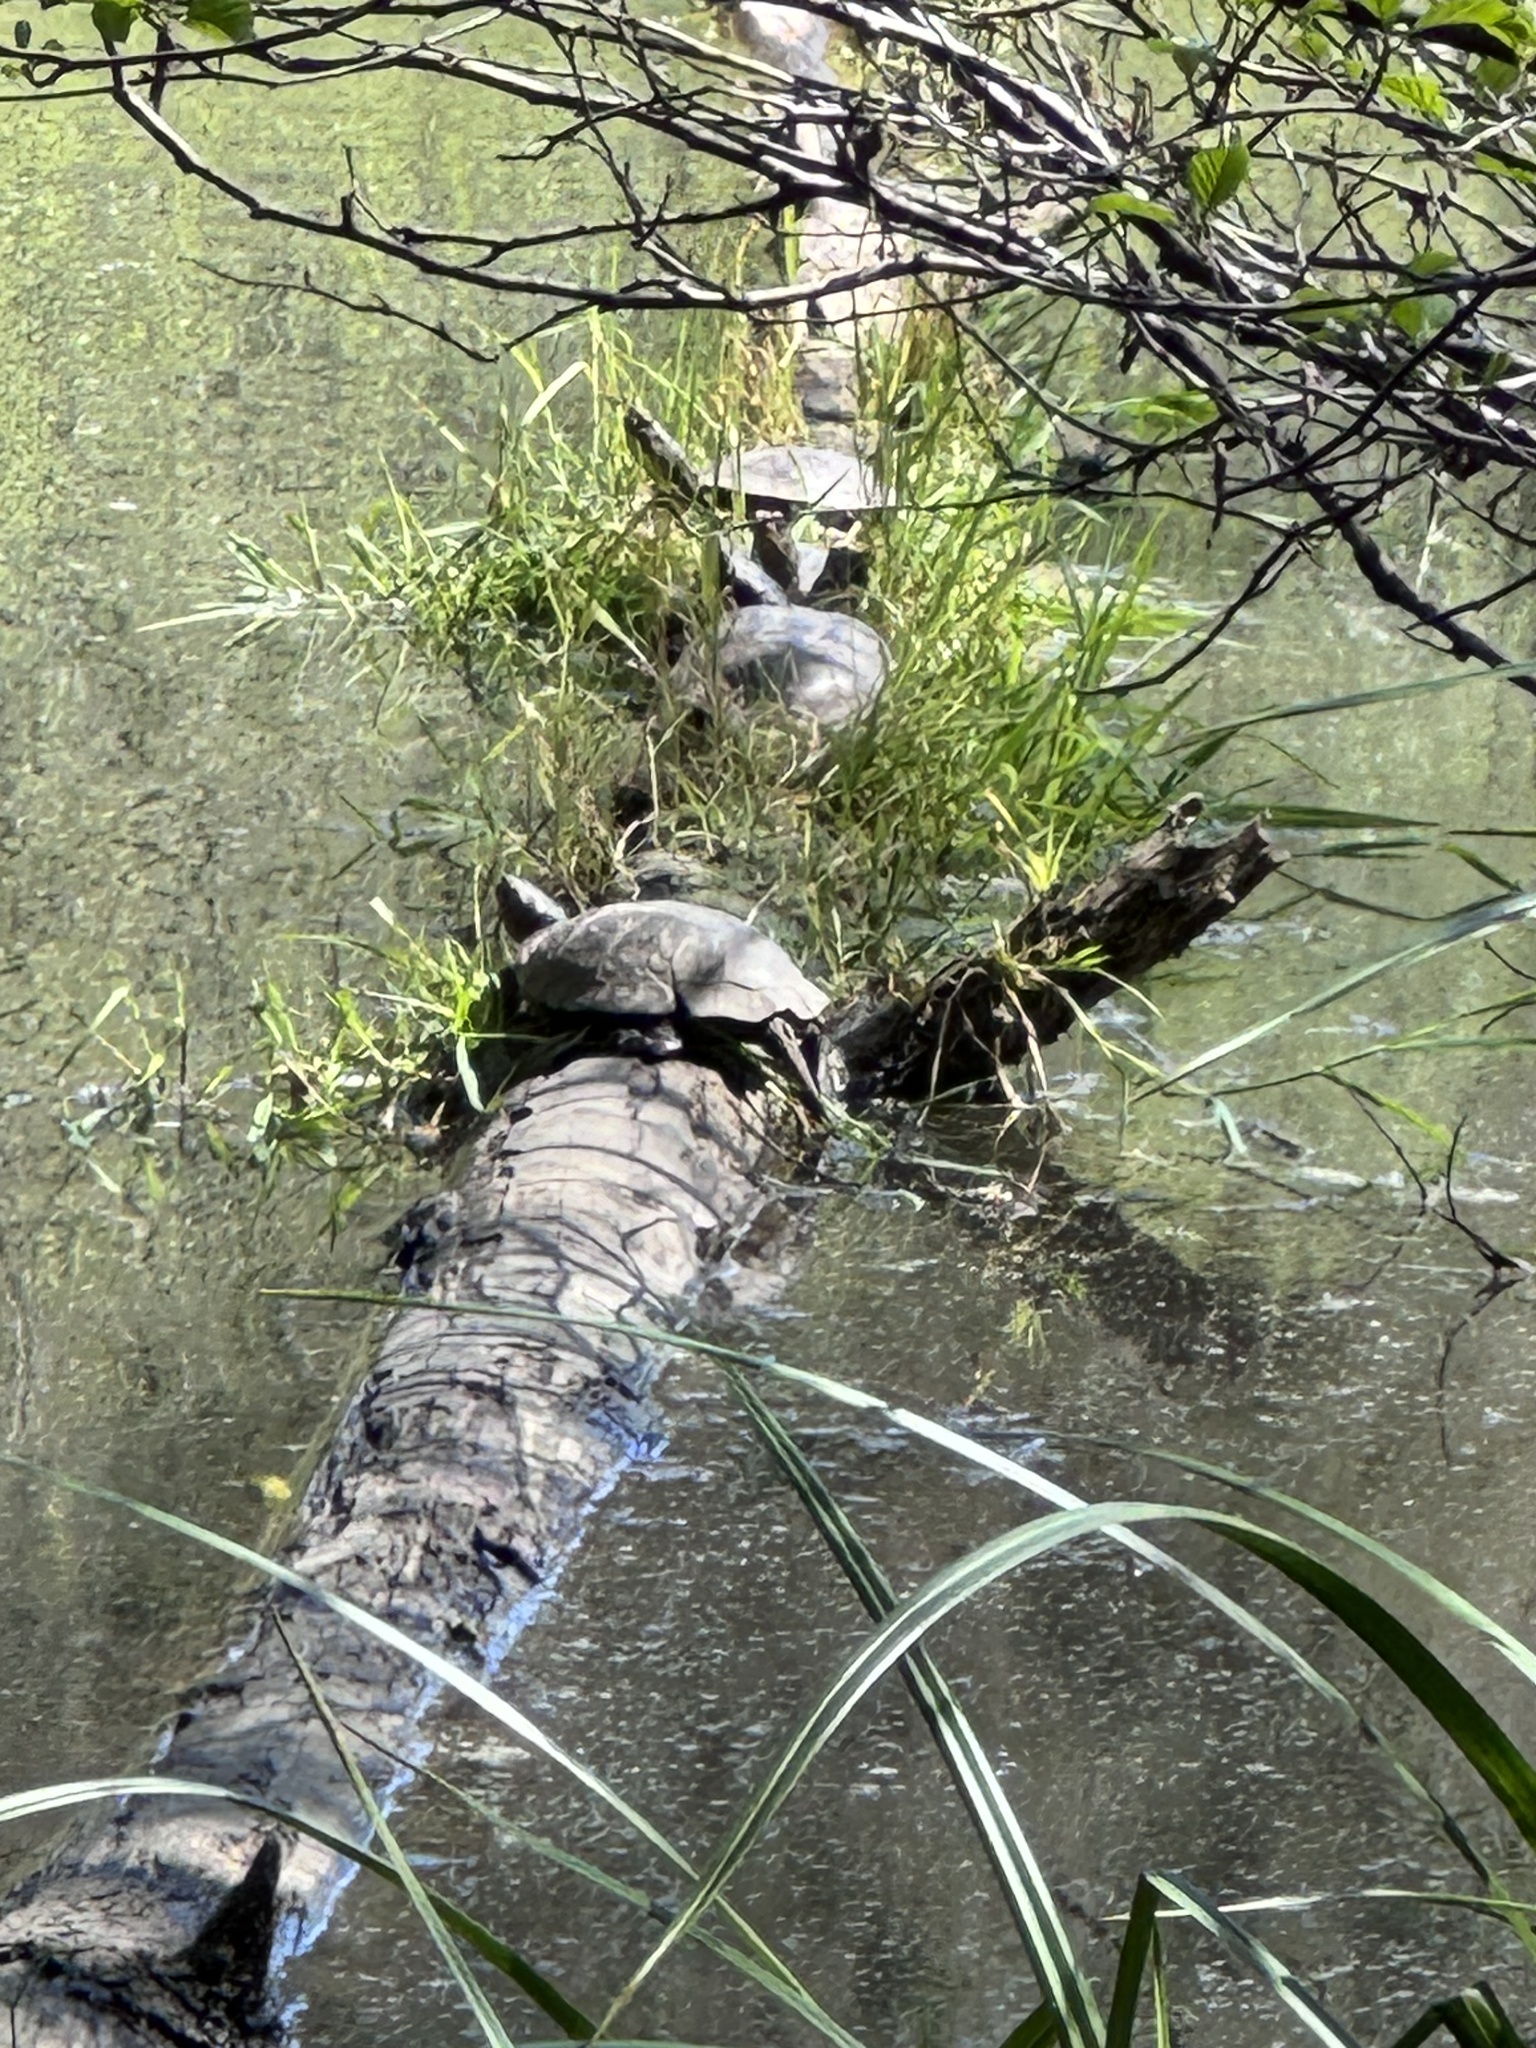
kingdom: Animalia
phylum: Chordata
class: Testudines
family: Emydidae
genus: Actinemys
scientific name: Actinemys marmorata
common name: Western pond turtle
